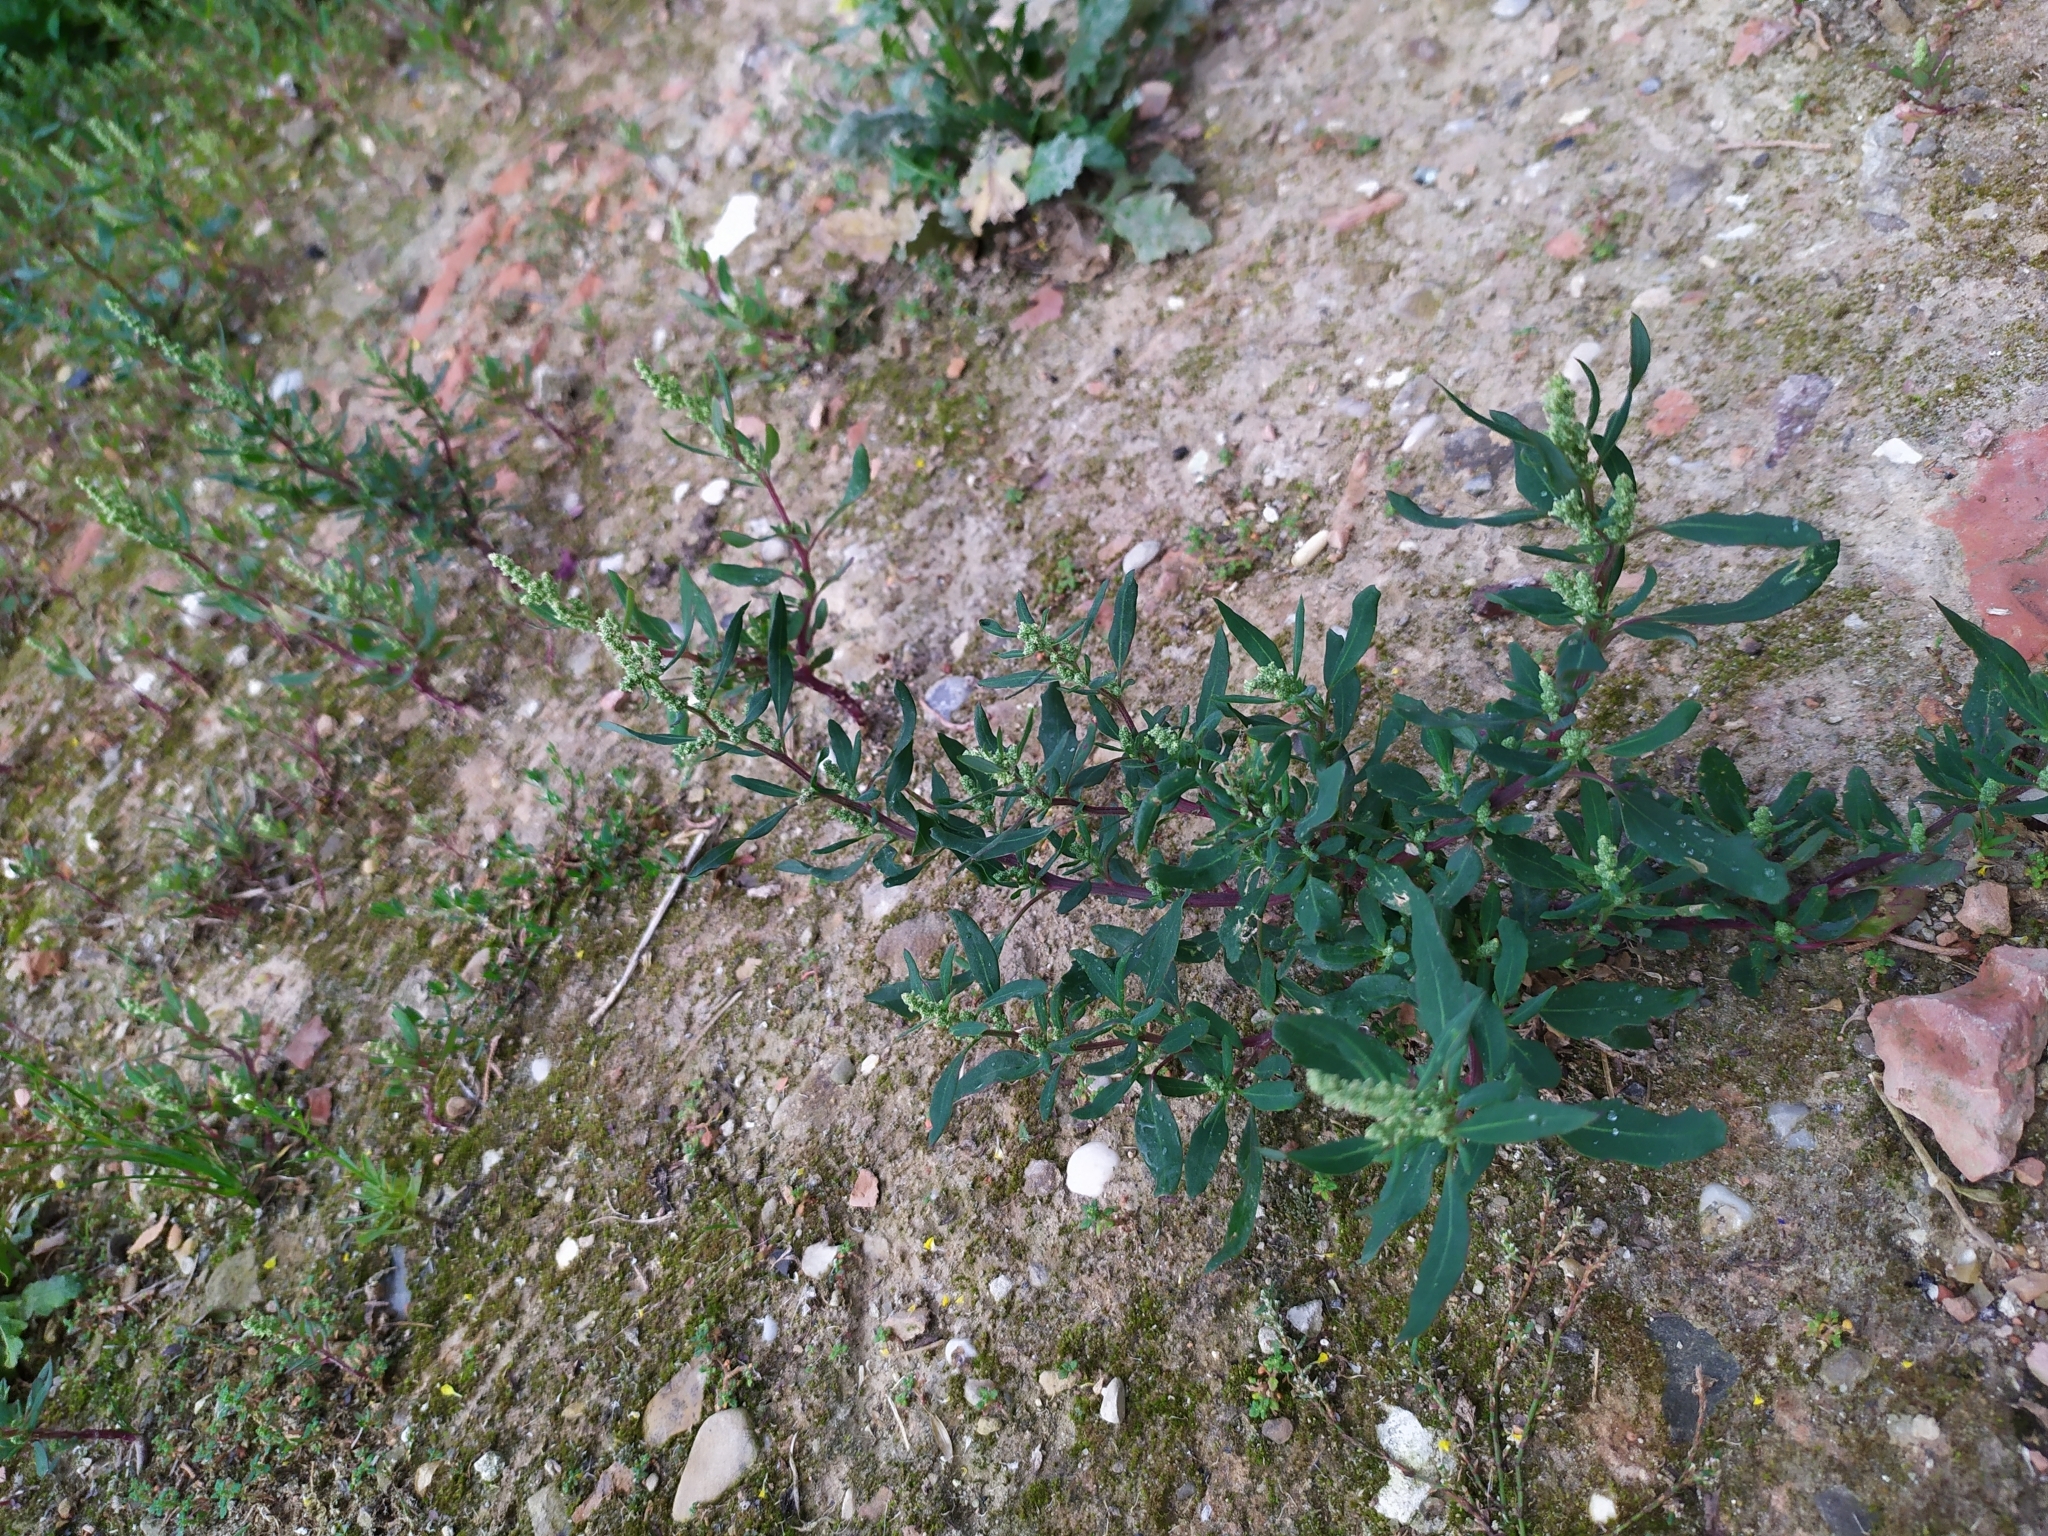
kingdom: Plantae
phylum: Tracheophyta
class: Magnoliopsida
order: Caryophyllales
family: Amaranthaceae
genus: Chenopodium
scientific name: Chenopodium betaceum
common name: Striped goosefoot
